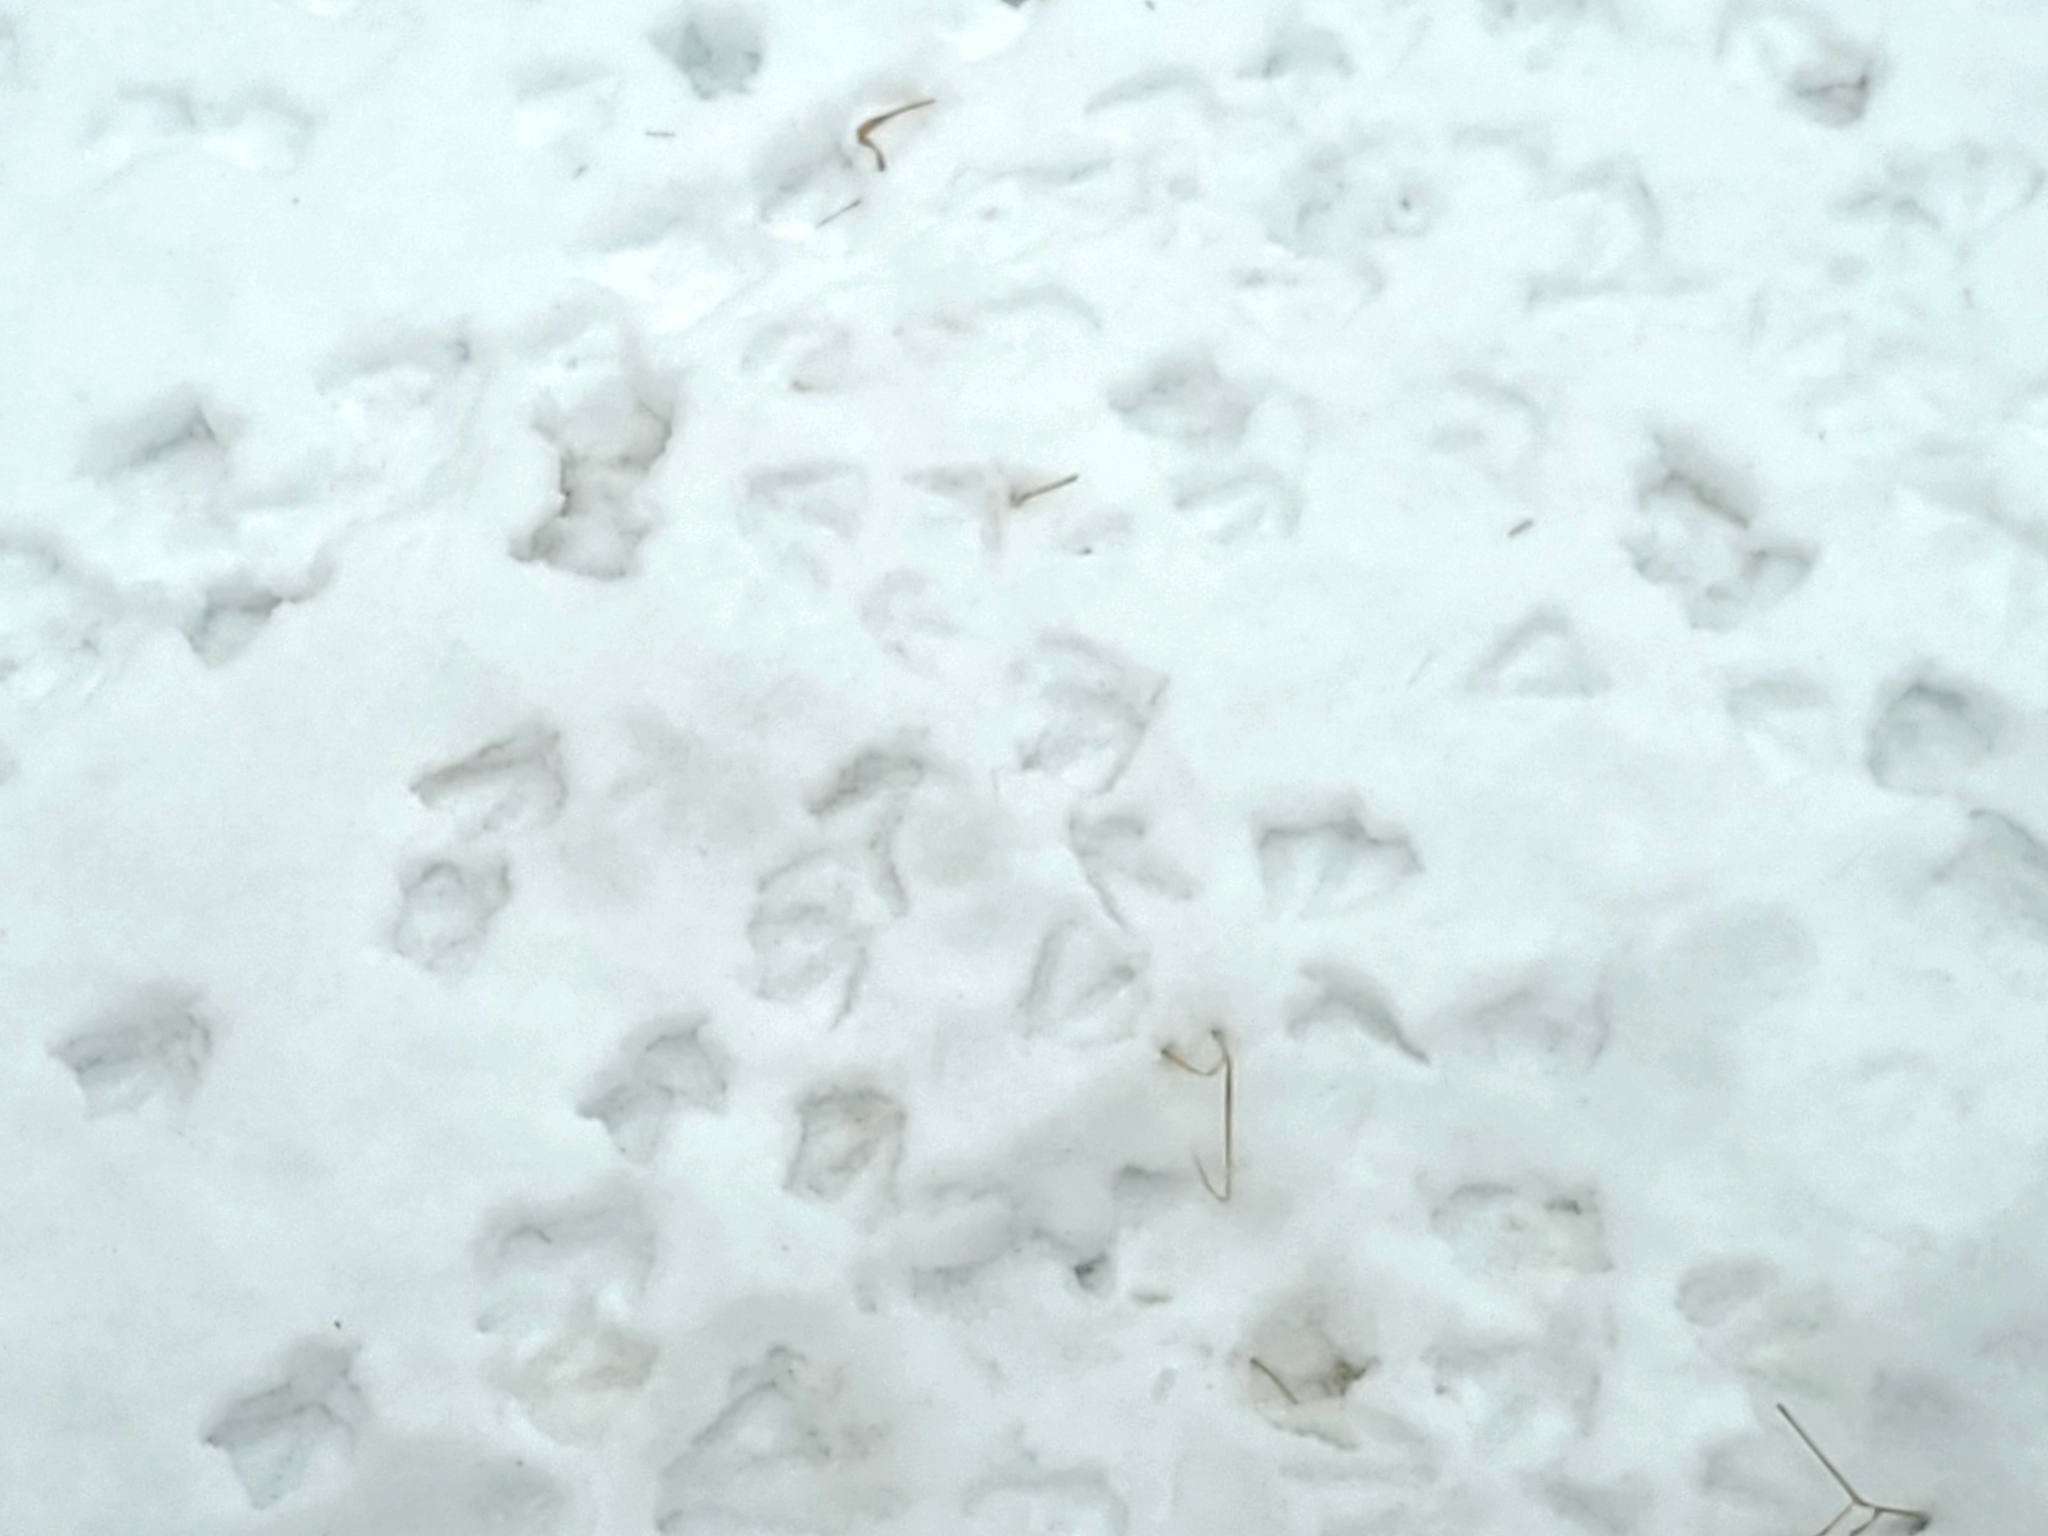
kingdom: Animalia
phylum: Chordata
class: Aves
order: Anseriformes
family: Anatidae
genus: Branta
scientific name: Branta canadensis
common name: Canada goose
